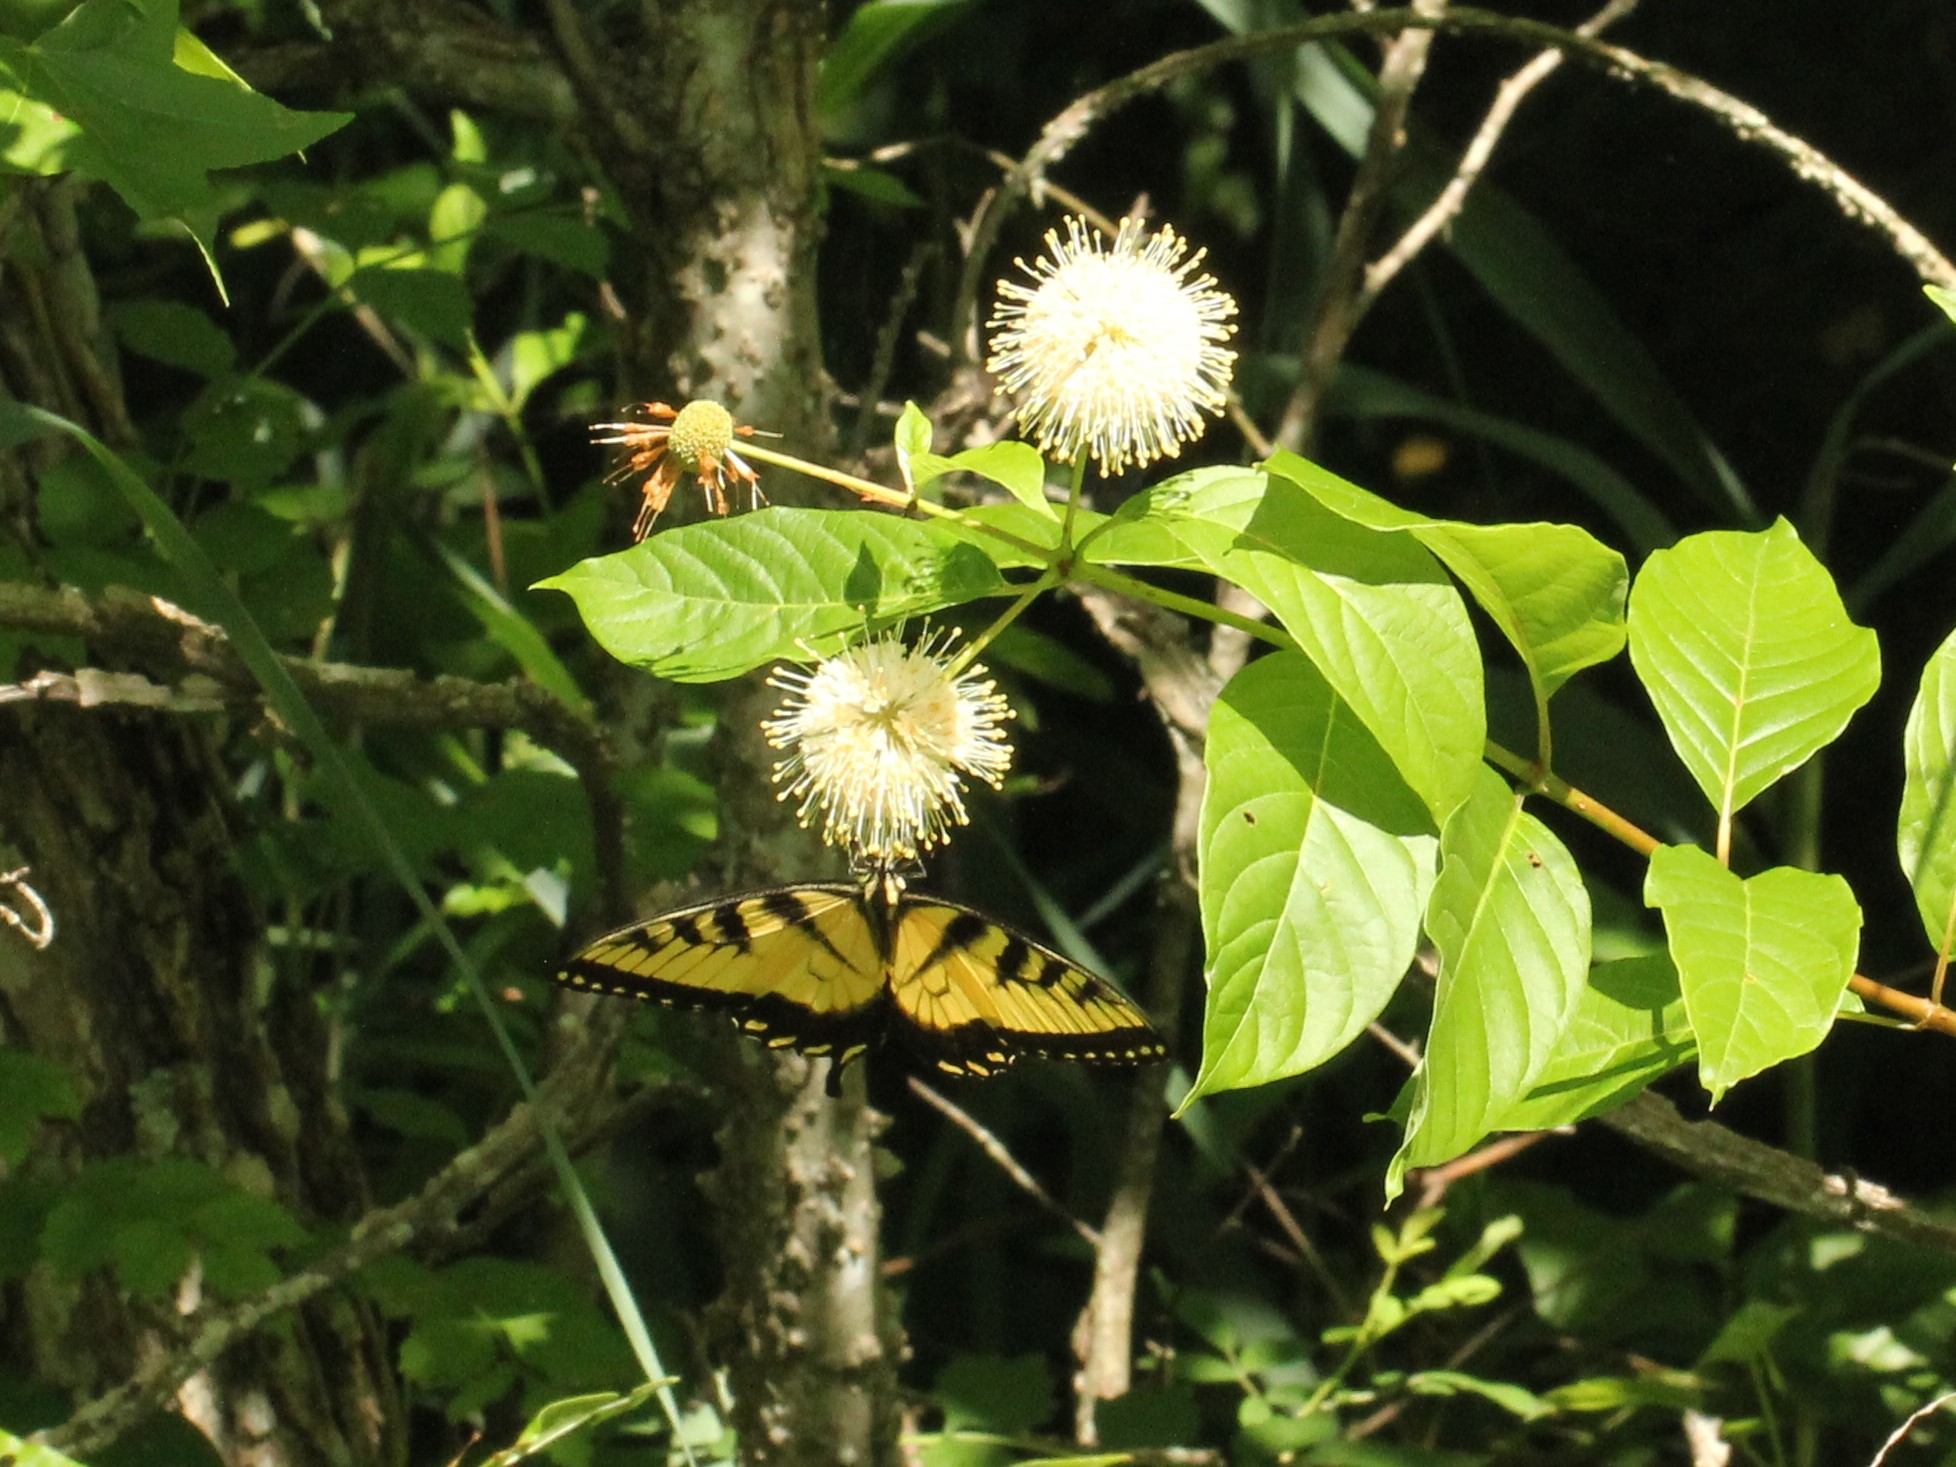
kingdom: Animalia
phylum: Arthropoda
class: Insecta
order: Lepidoptera
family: Papilionidae
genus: Papilio
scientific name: Papilio glaucus
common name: Tiger swallowtail
